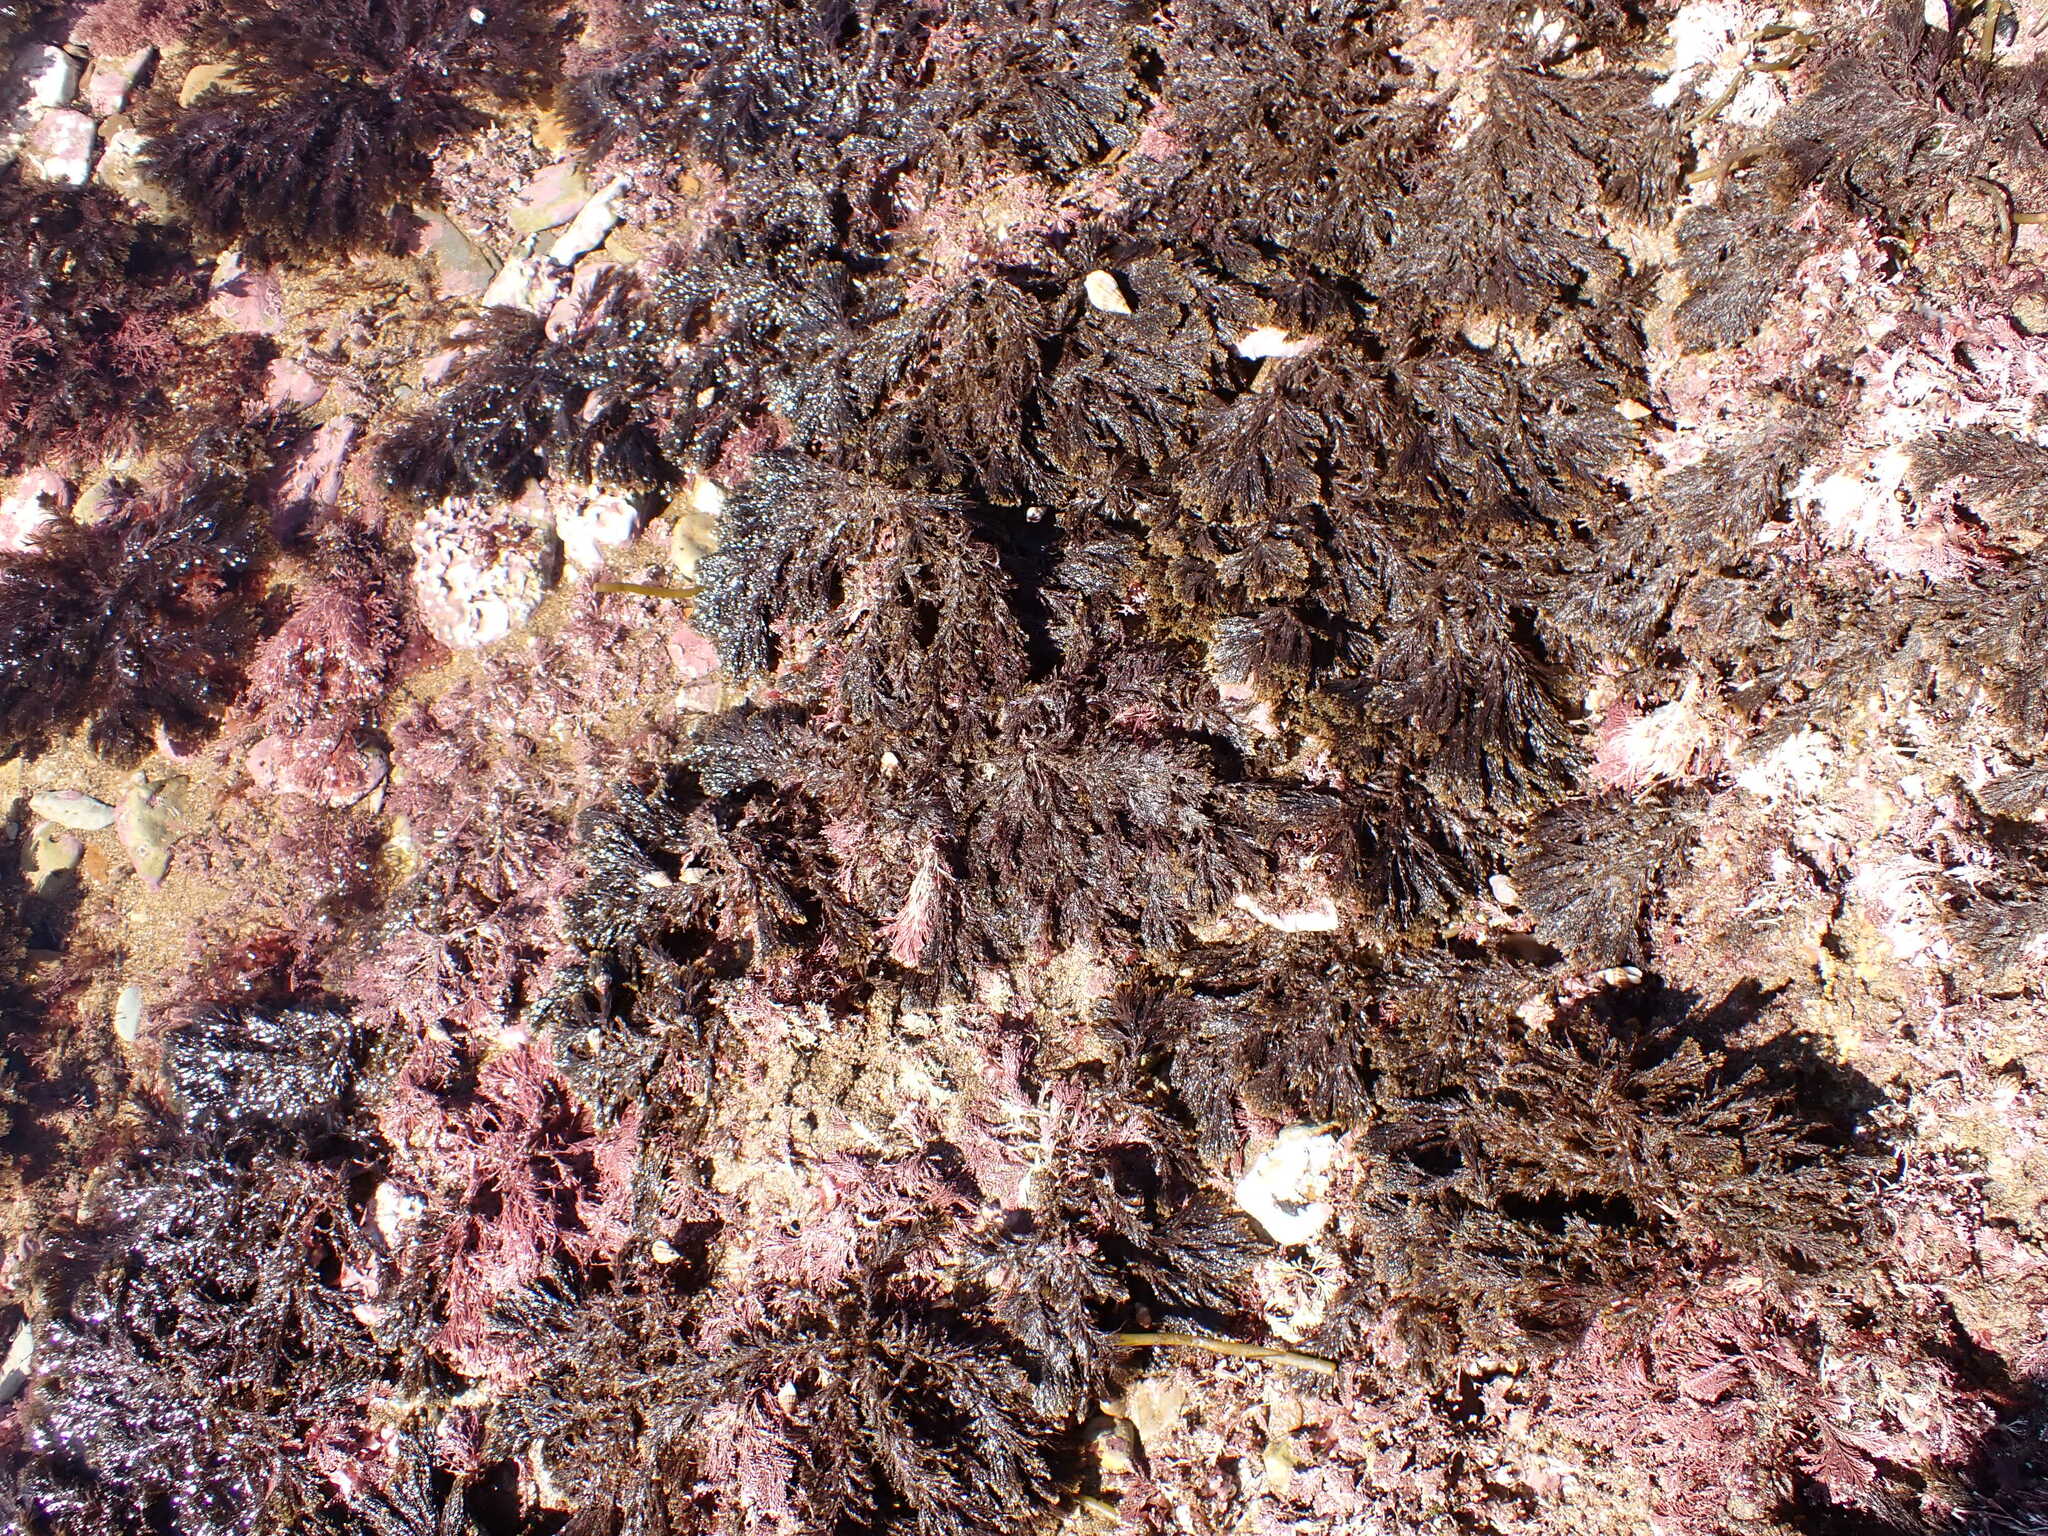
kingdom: Chromista
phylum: Ochrophyta
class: Phaeophyceae
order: Sphacelariales
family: Stypocaulaceae
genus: Halopteris
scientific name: Halopteris scoparia
